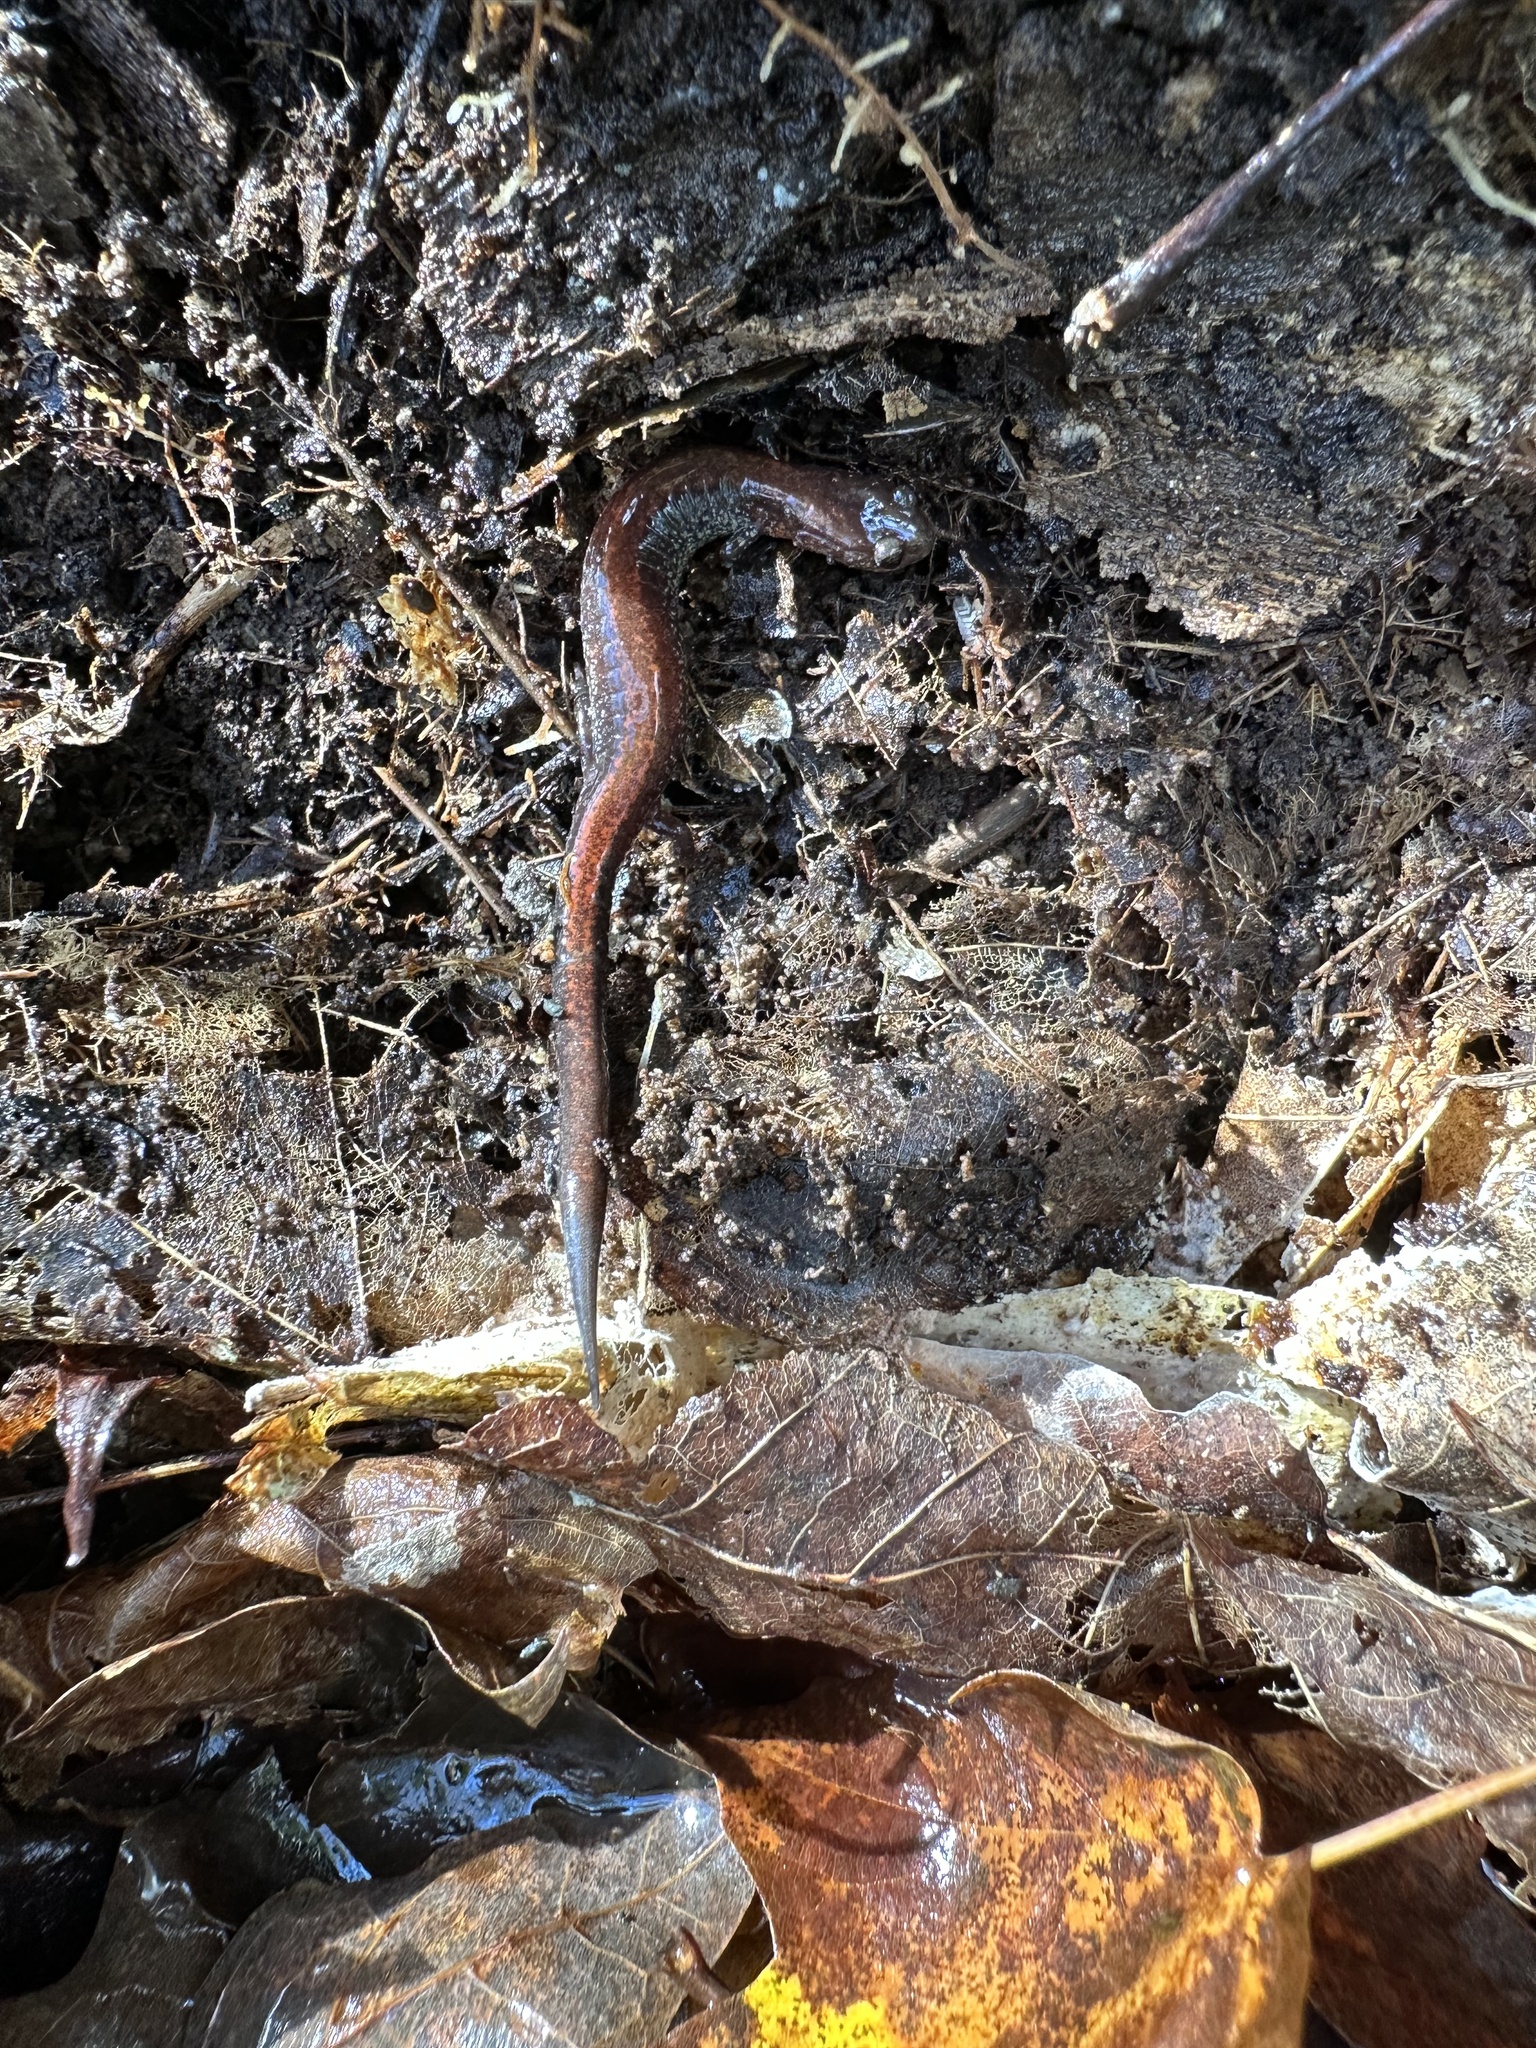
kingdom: Animalia
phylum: Chordata
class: Amphibia
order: Caudata
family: Plethodontidae
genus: Plethodon
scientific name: Plethodon cinereus
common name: Redback salamander
